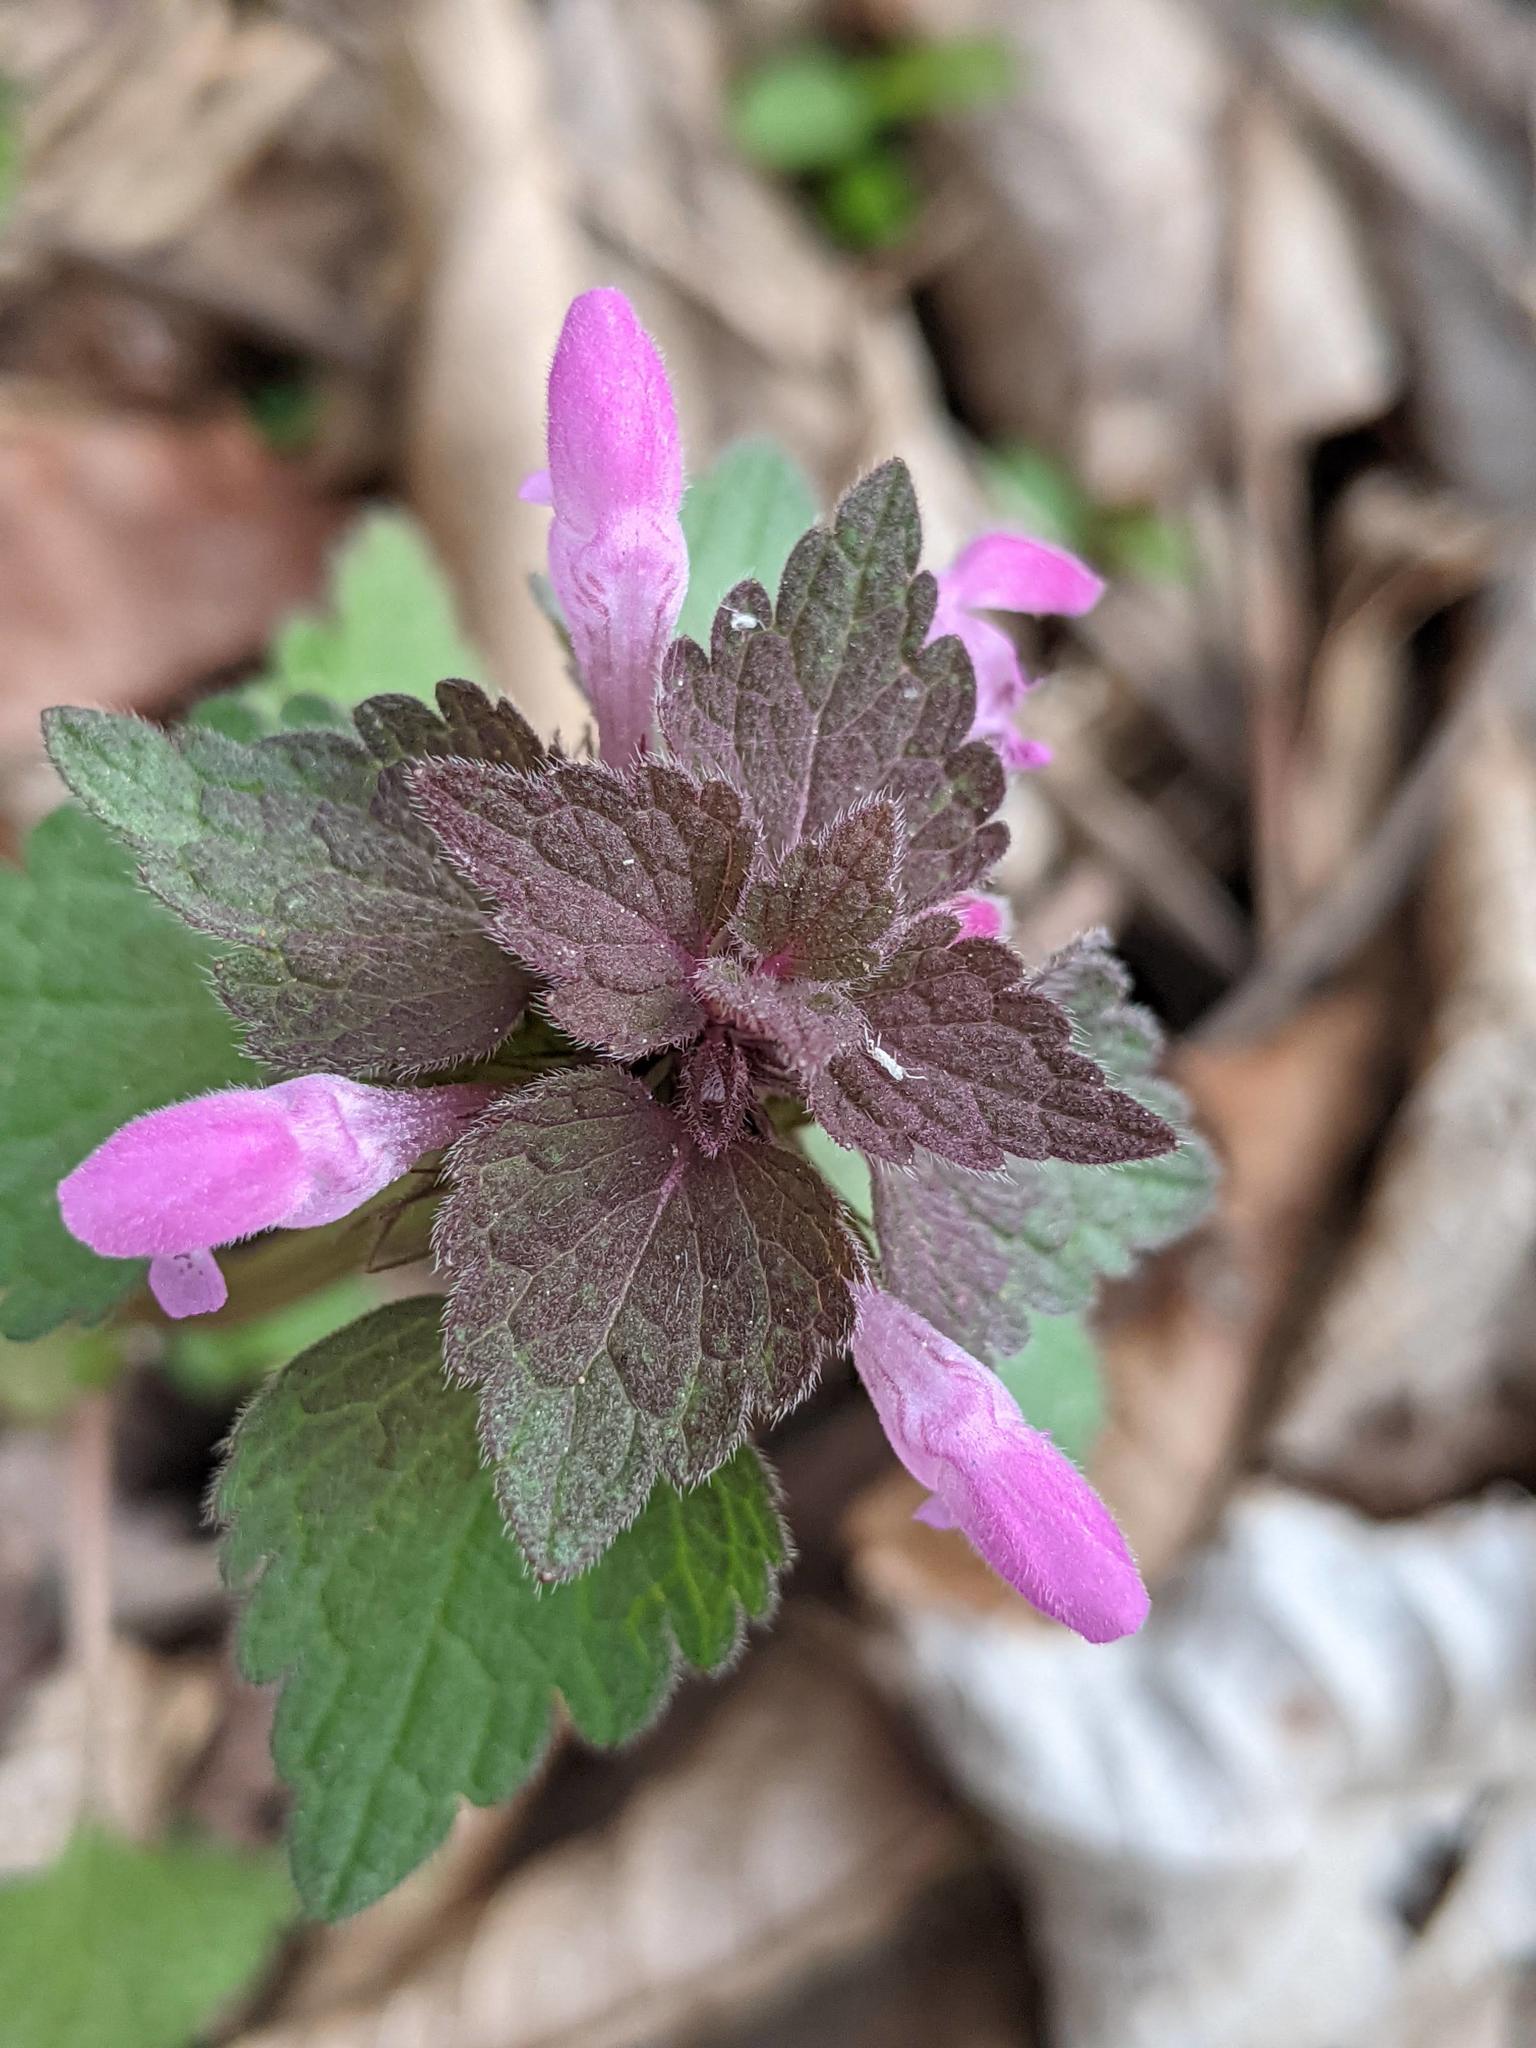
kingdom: Plantae
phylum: Tracheophyta
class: Magnoliopsida
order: Lamiales
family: Lamiaceae
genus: Lamium
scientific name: Lamium purpureum
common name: Red dead-nettle
